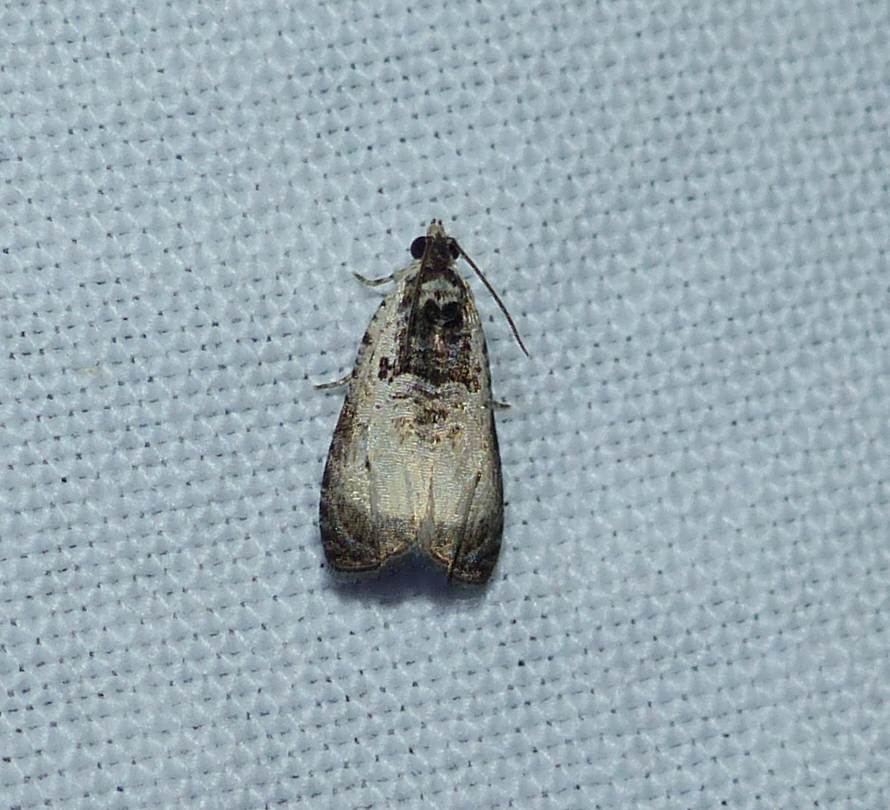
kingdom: Animalia
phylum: Arthropoda
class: Insecta
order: Lepidoptera
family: Tortricidae
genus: Olethreutes
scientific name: Olethreutes malana
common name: Malana leafroller moth
